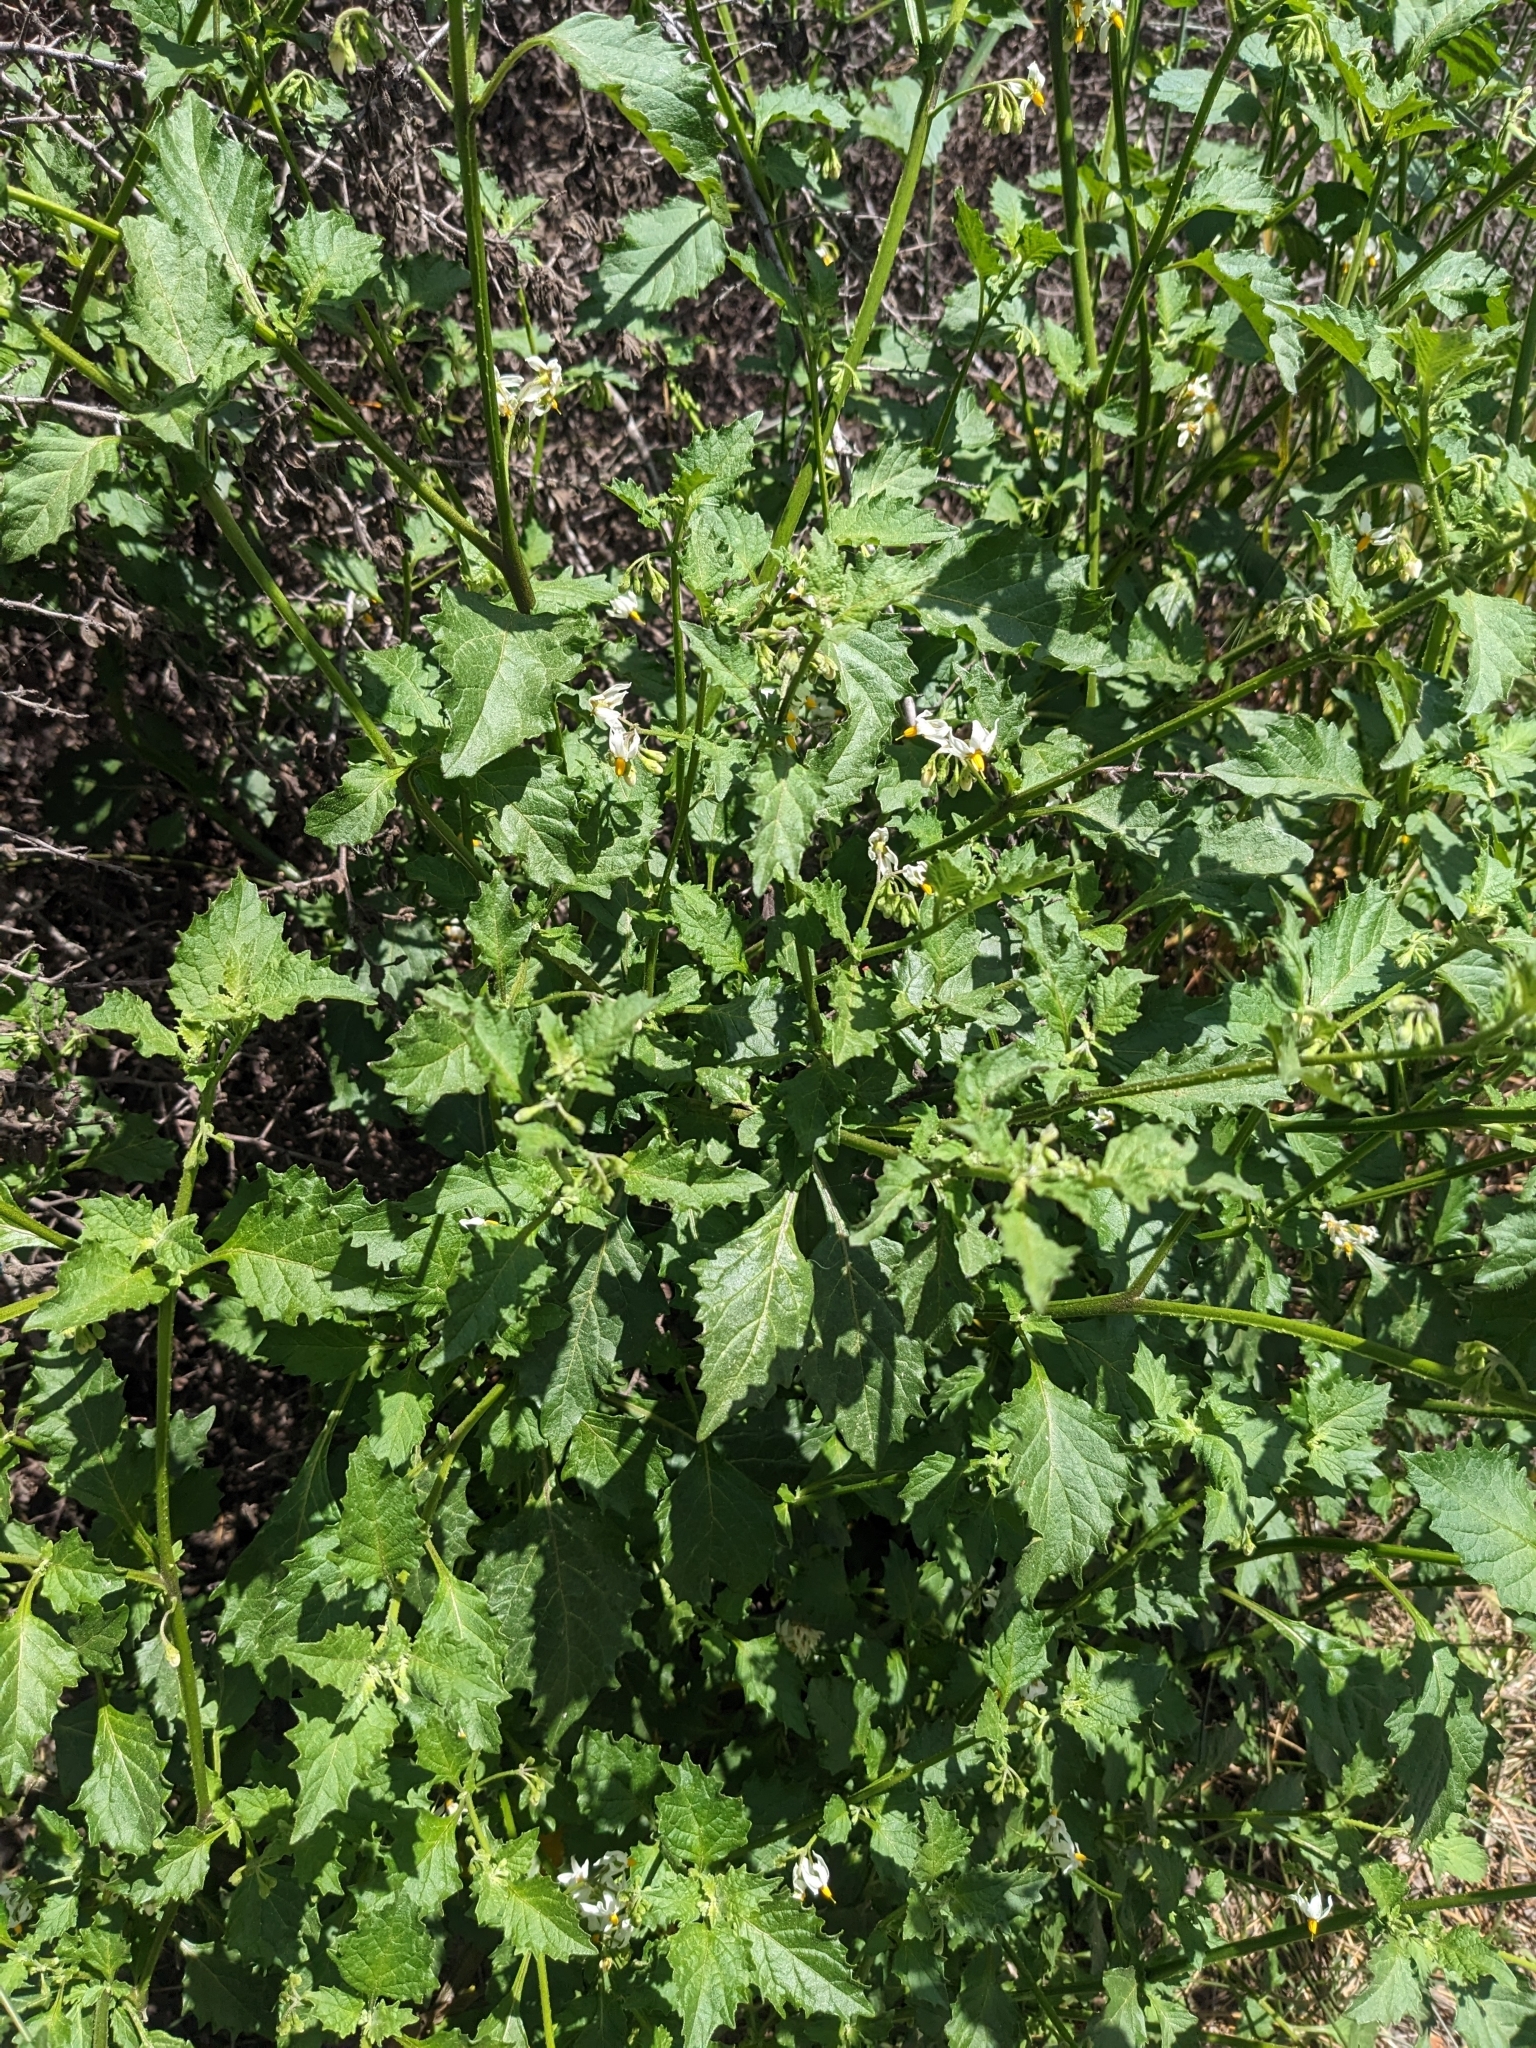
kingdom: Plantae
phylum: Tracheophyta
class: Magnoliopsida
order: Solanales
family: Solanaceae
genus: Solanum
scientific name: Solanum douglasii
